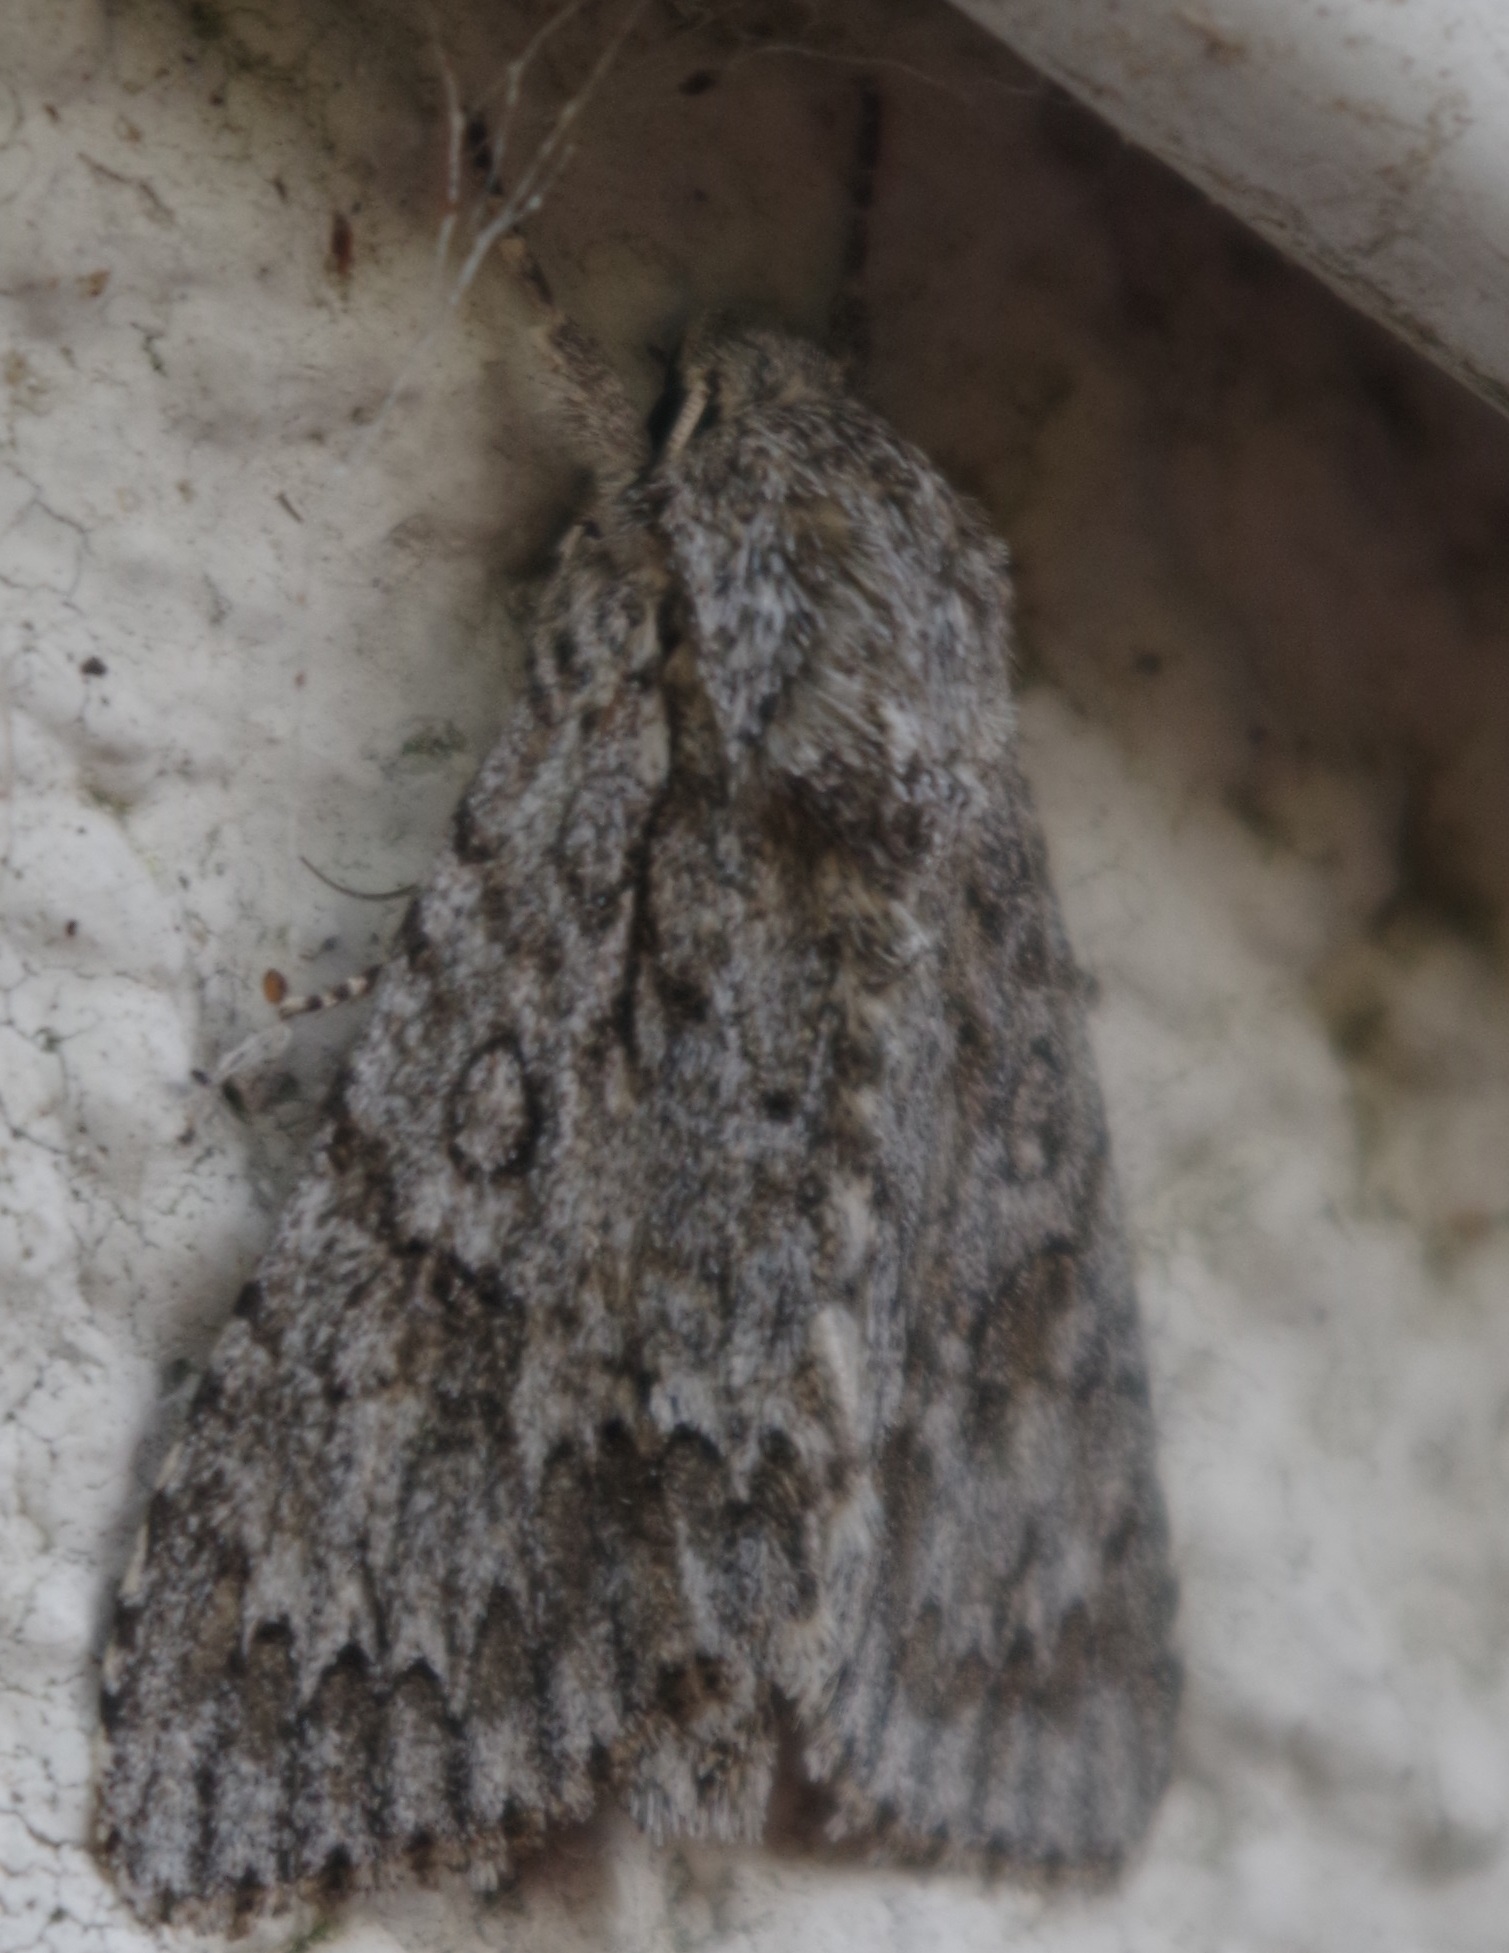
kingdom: Animalia
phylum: Arthropoda
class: Insecta
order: Lepidoptera
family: Noctuidae
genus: Acronicta
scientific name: Acronicta aceris
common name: Sycamore
